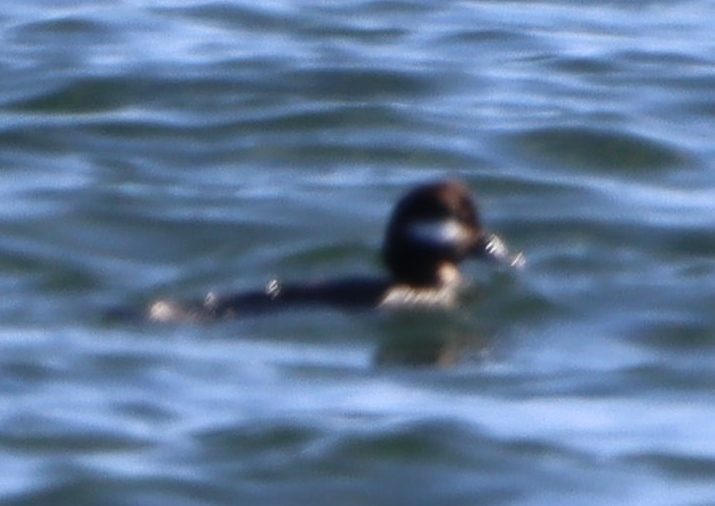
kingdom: Animalia
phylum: Chordata
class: Aves
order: Anseriformes
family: Anatidae
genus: Bucephala
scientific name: Bucephala albeola
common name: Bufflehead
